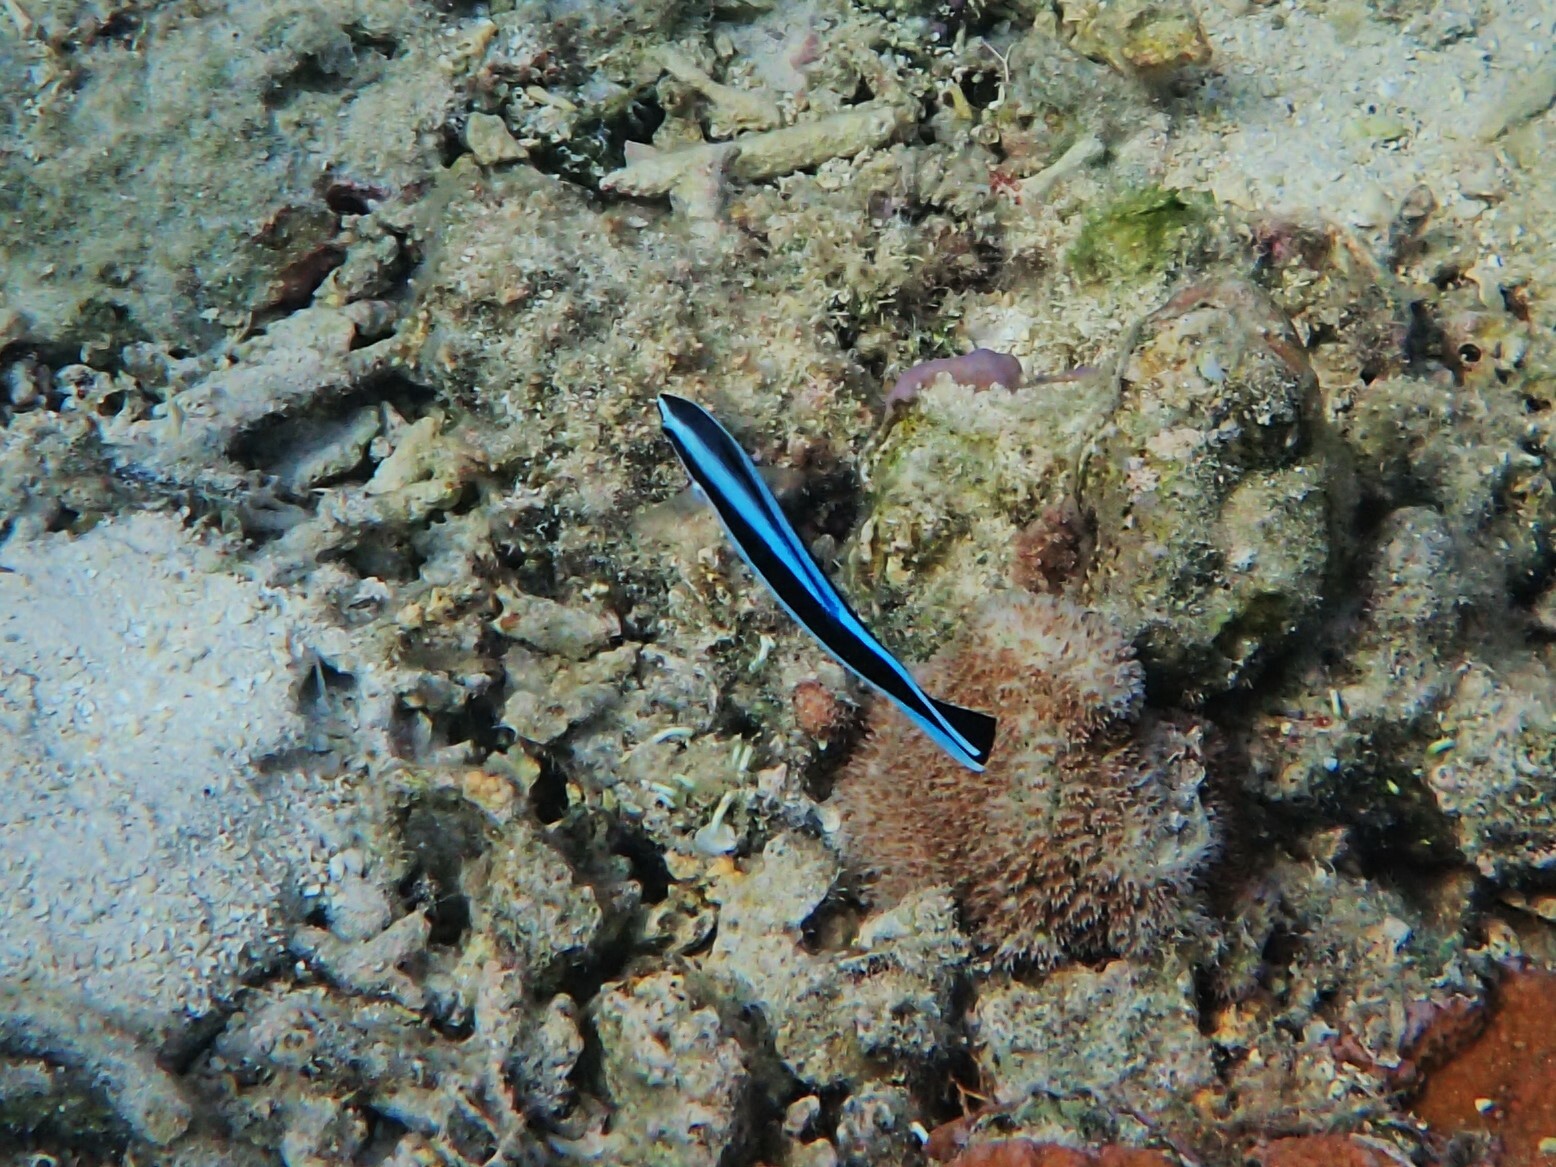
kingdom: Animalia
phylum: Chordata
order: Perciformes
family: Labridae
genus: Labroides
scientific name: Labroides dimidiatus
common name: Blue diesel wrasse
